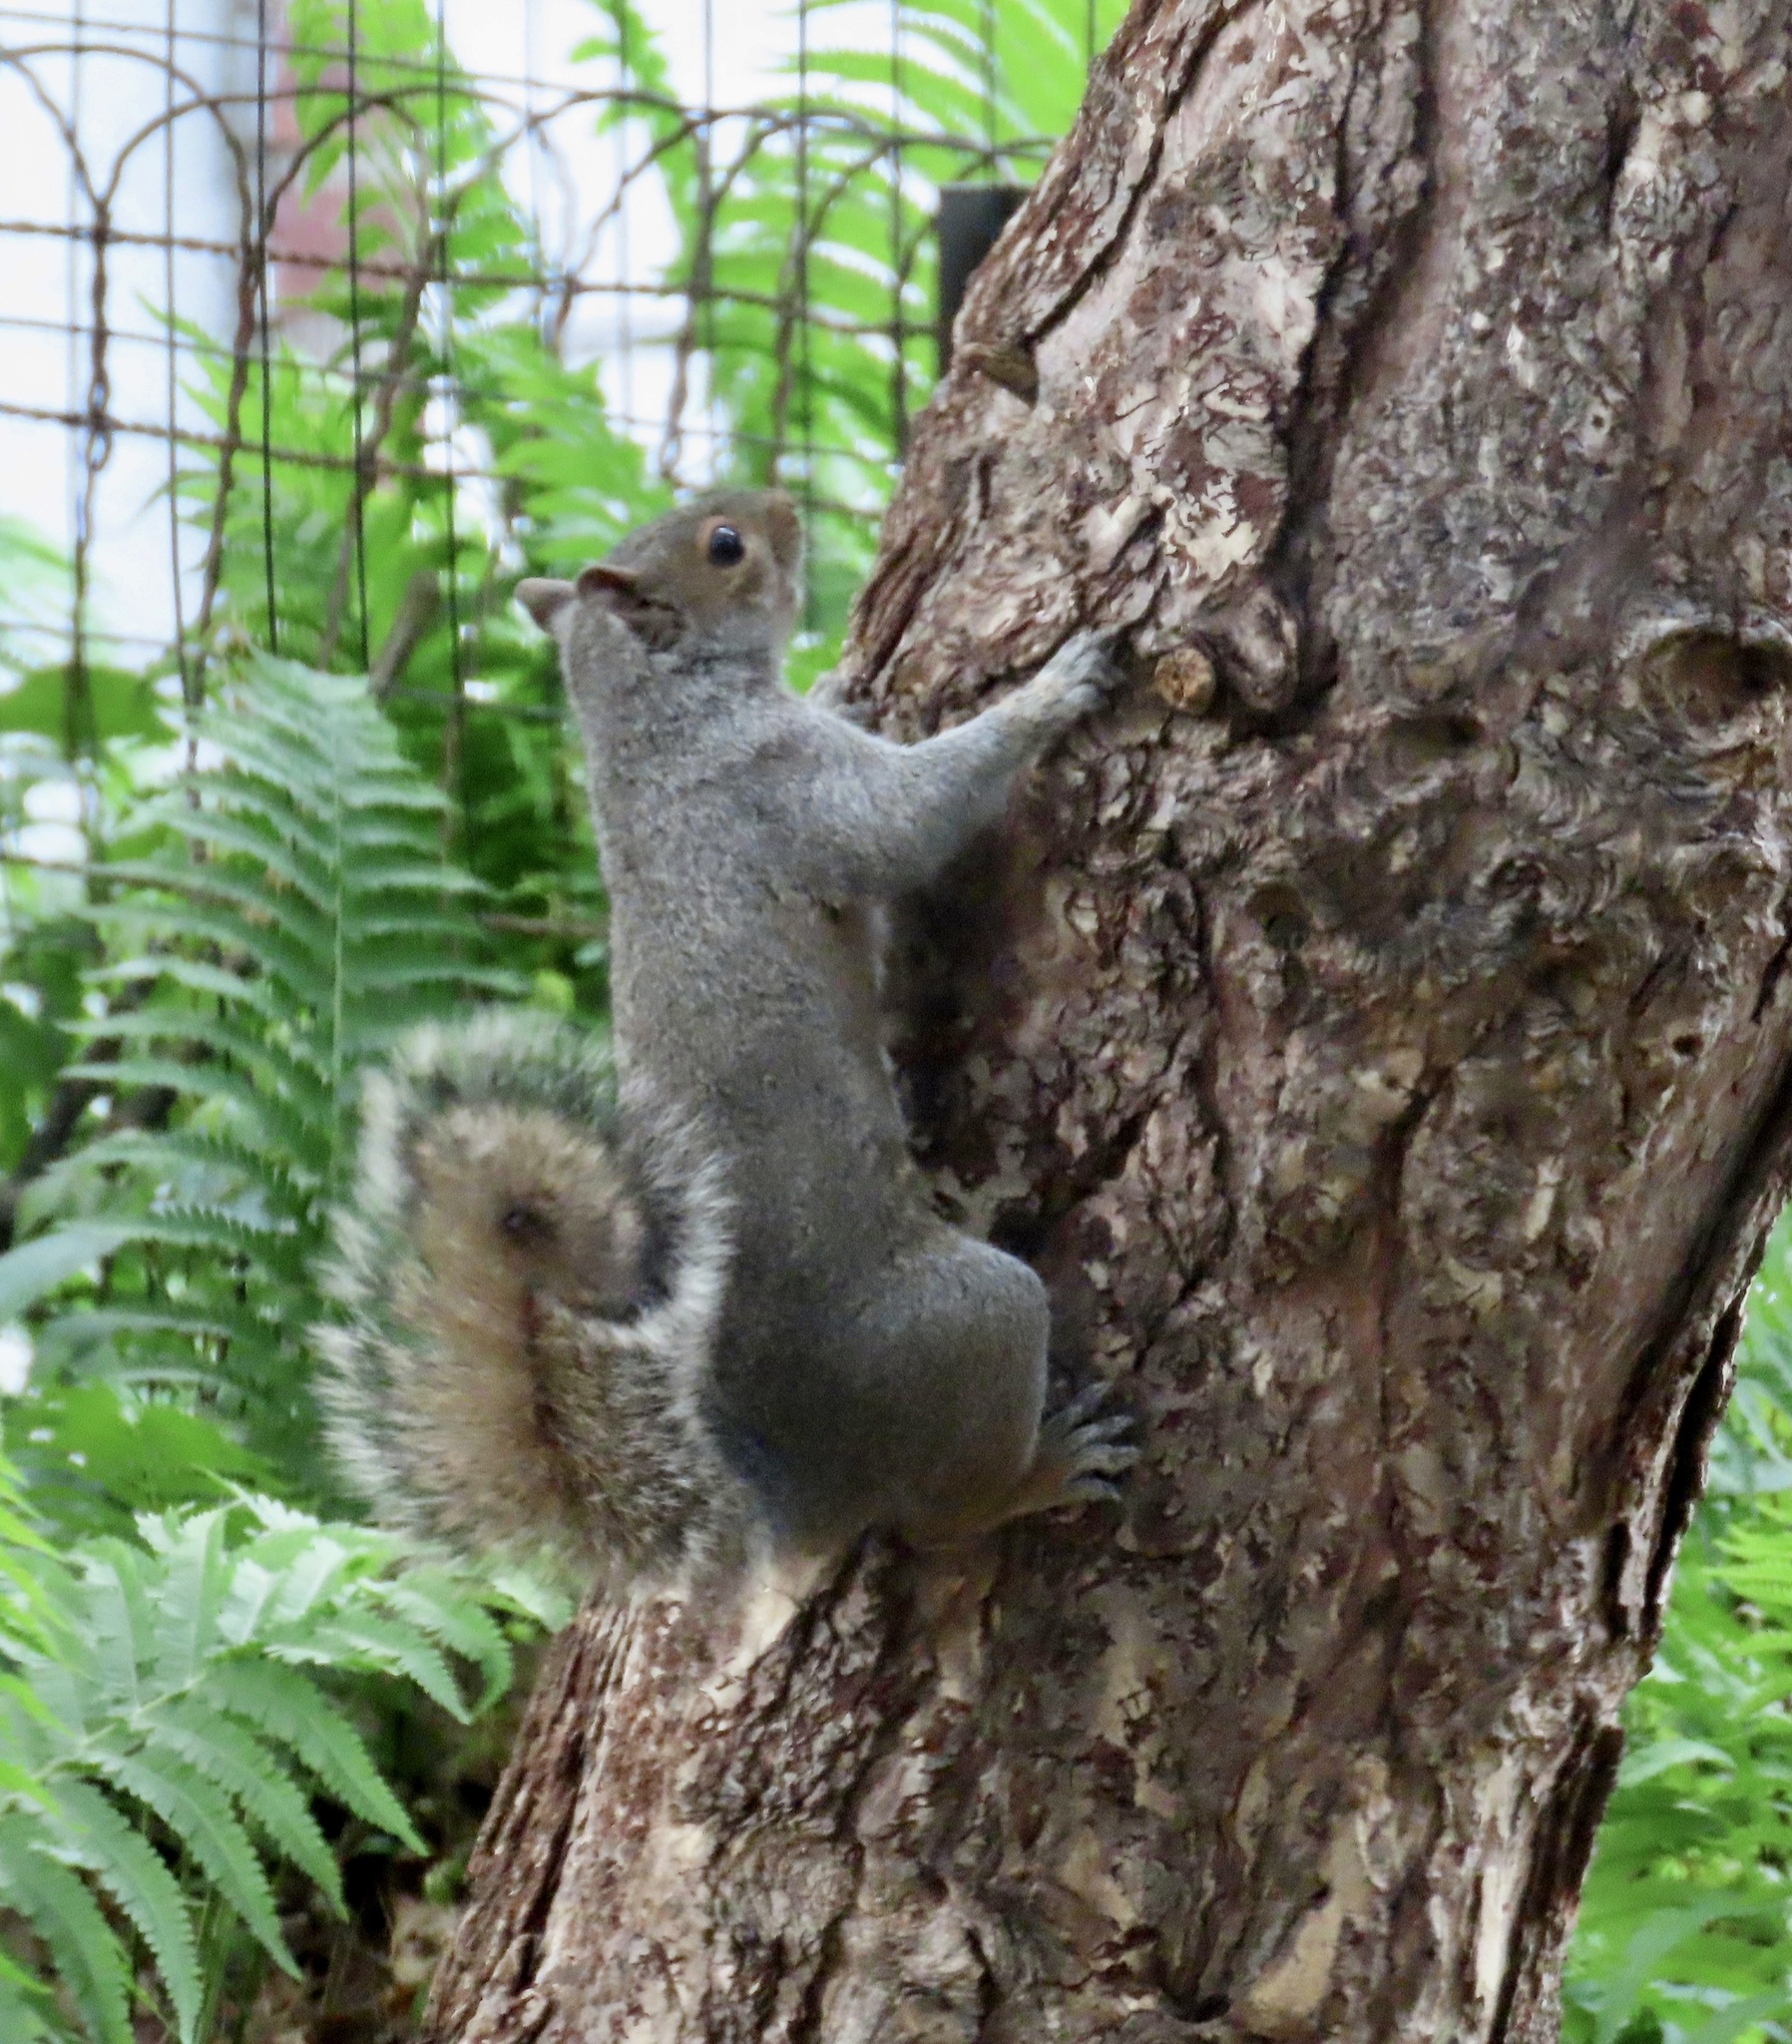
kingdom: Animalia
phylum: Chordata
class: Mammalia
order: Rodentia
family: Sciuridae
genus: Sciurus
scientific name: Sciurus carolinensis
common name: Eastern gray squirrel
